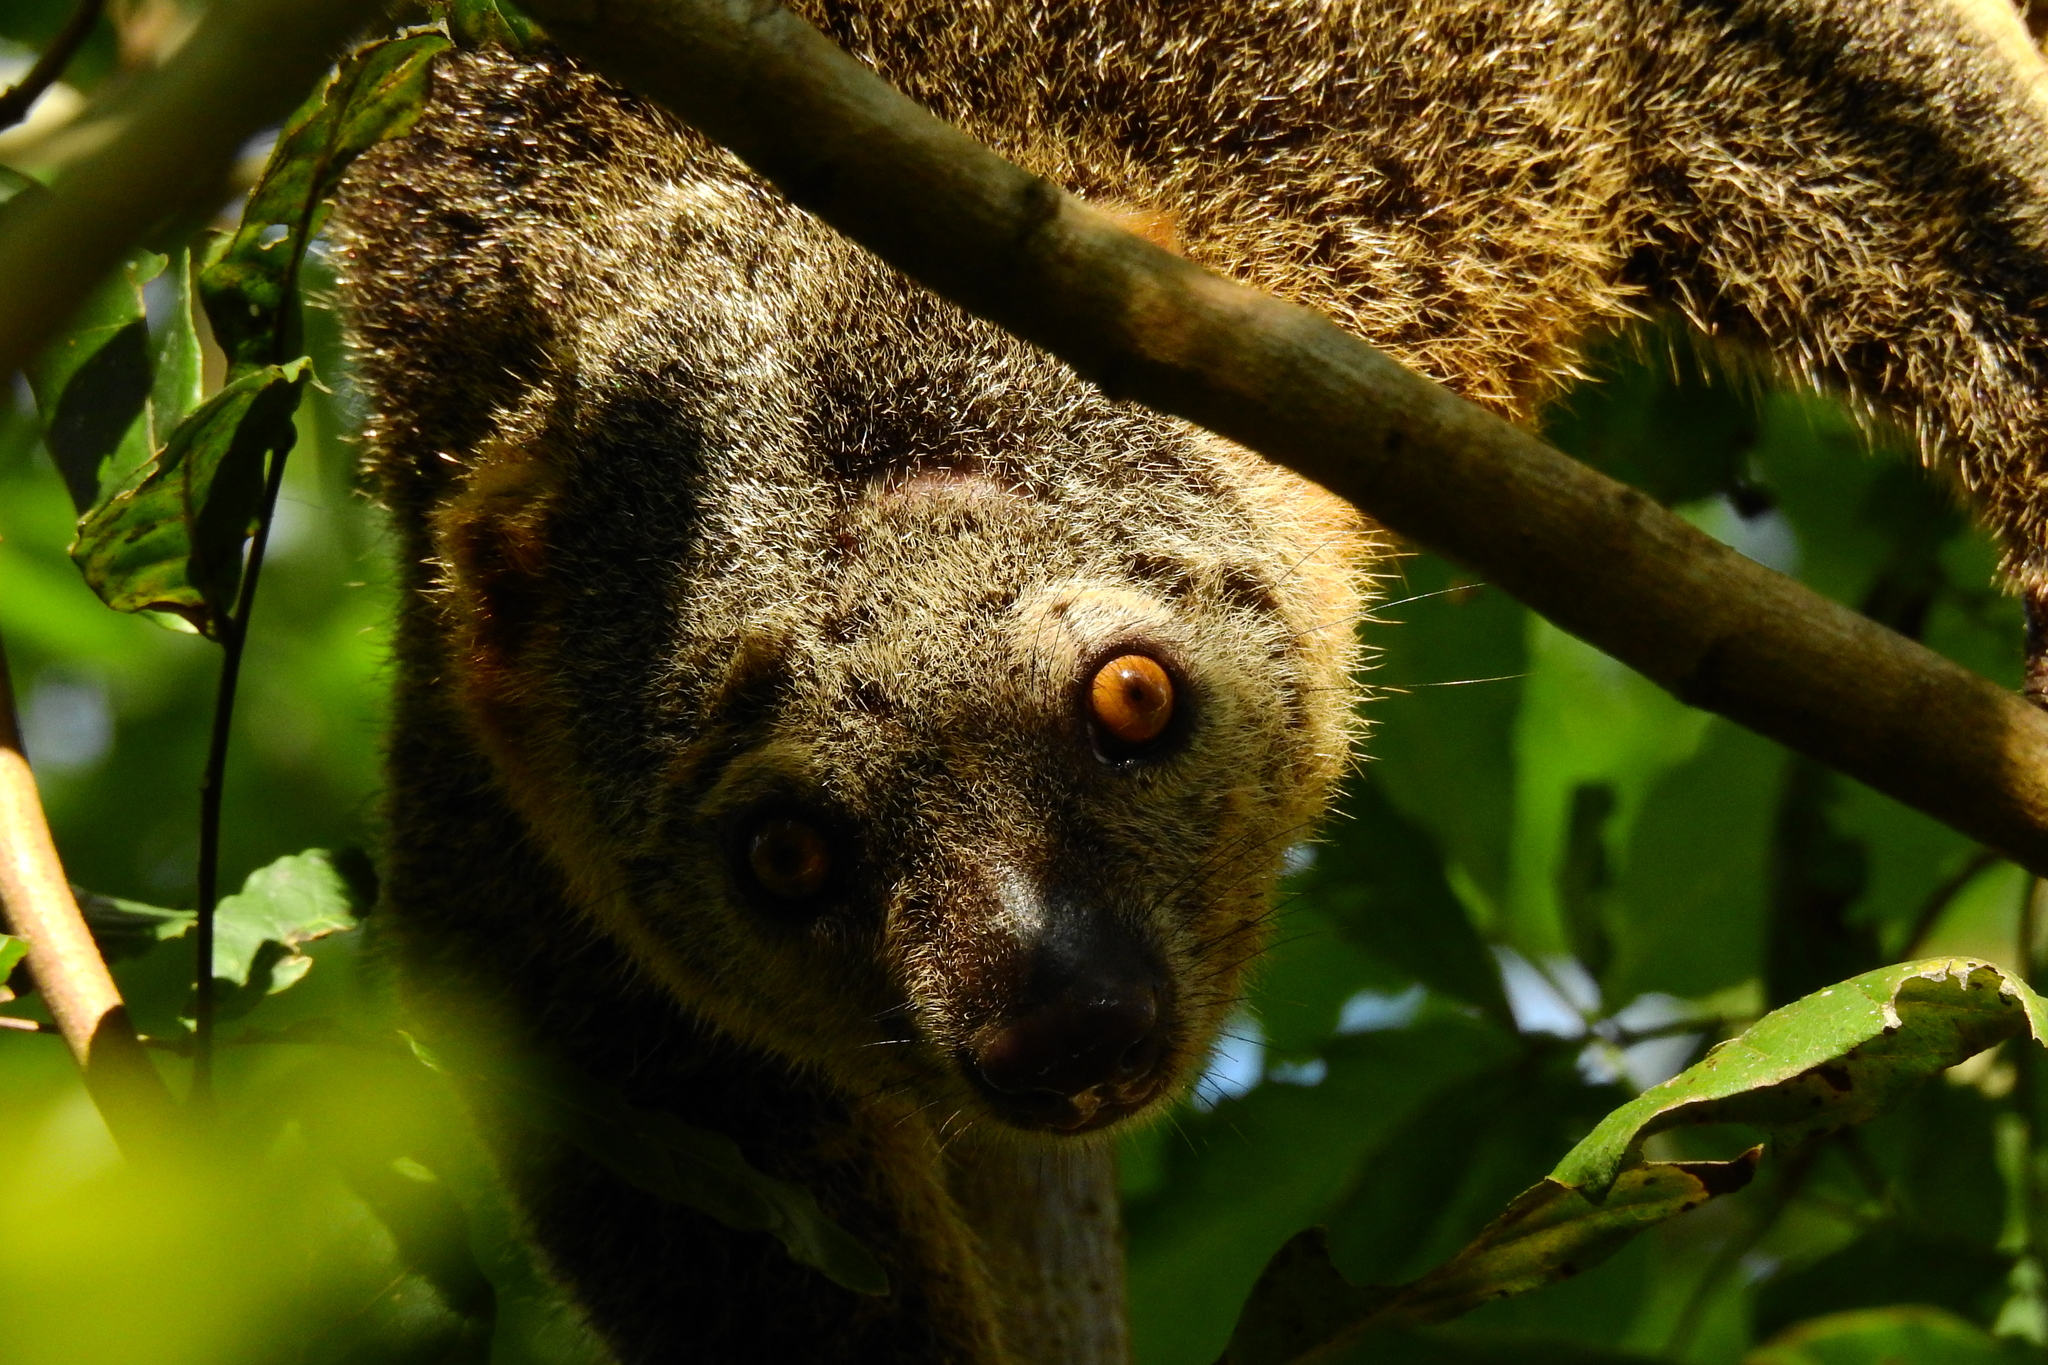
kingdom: Animalia
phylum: Chordata
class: Mammalia
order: Diprotodontia
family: Phalangeridae
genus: Ailurops
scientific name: Ailurops ursinus
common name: Sulawesi bear cuscus
